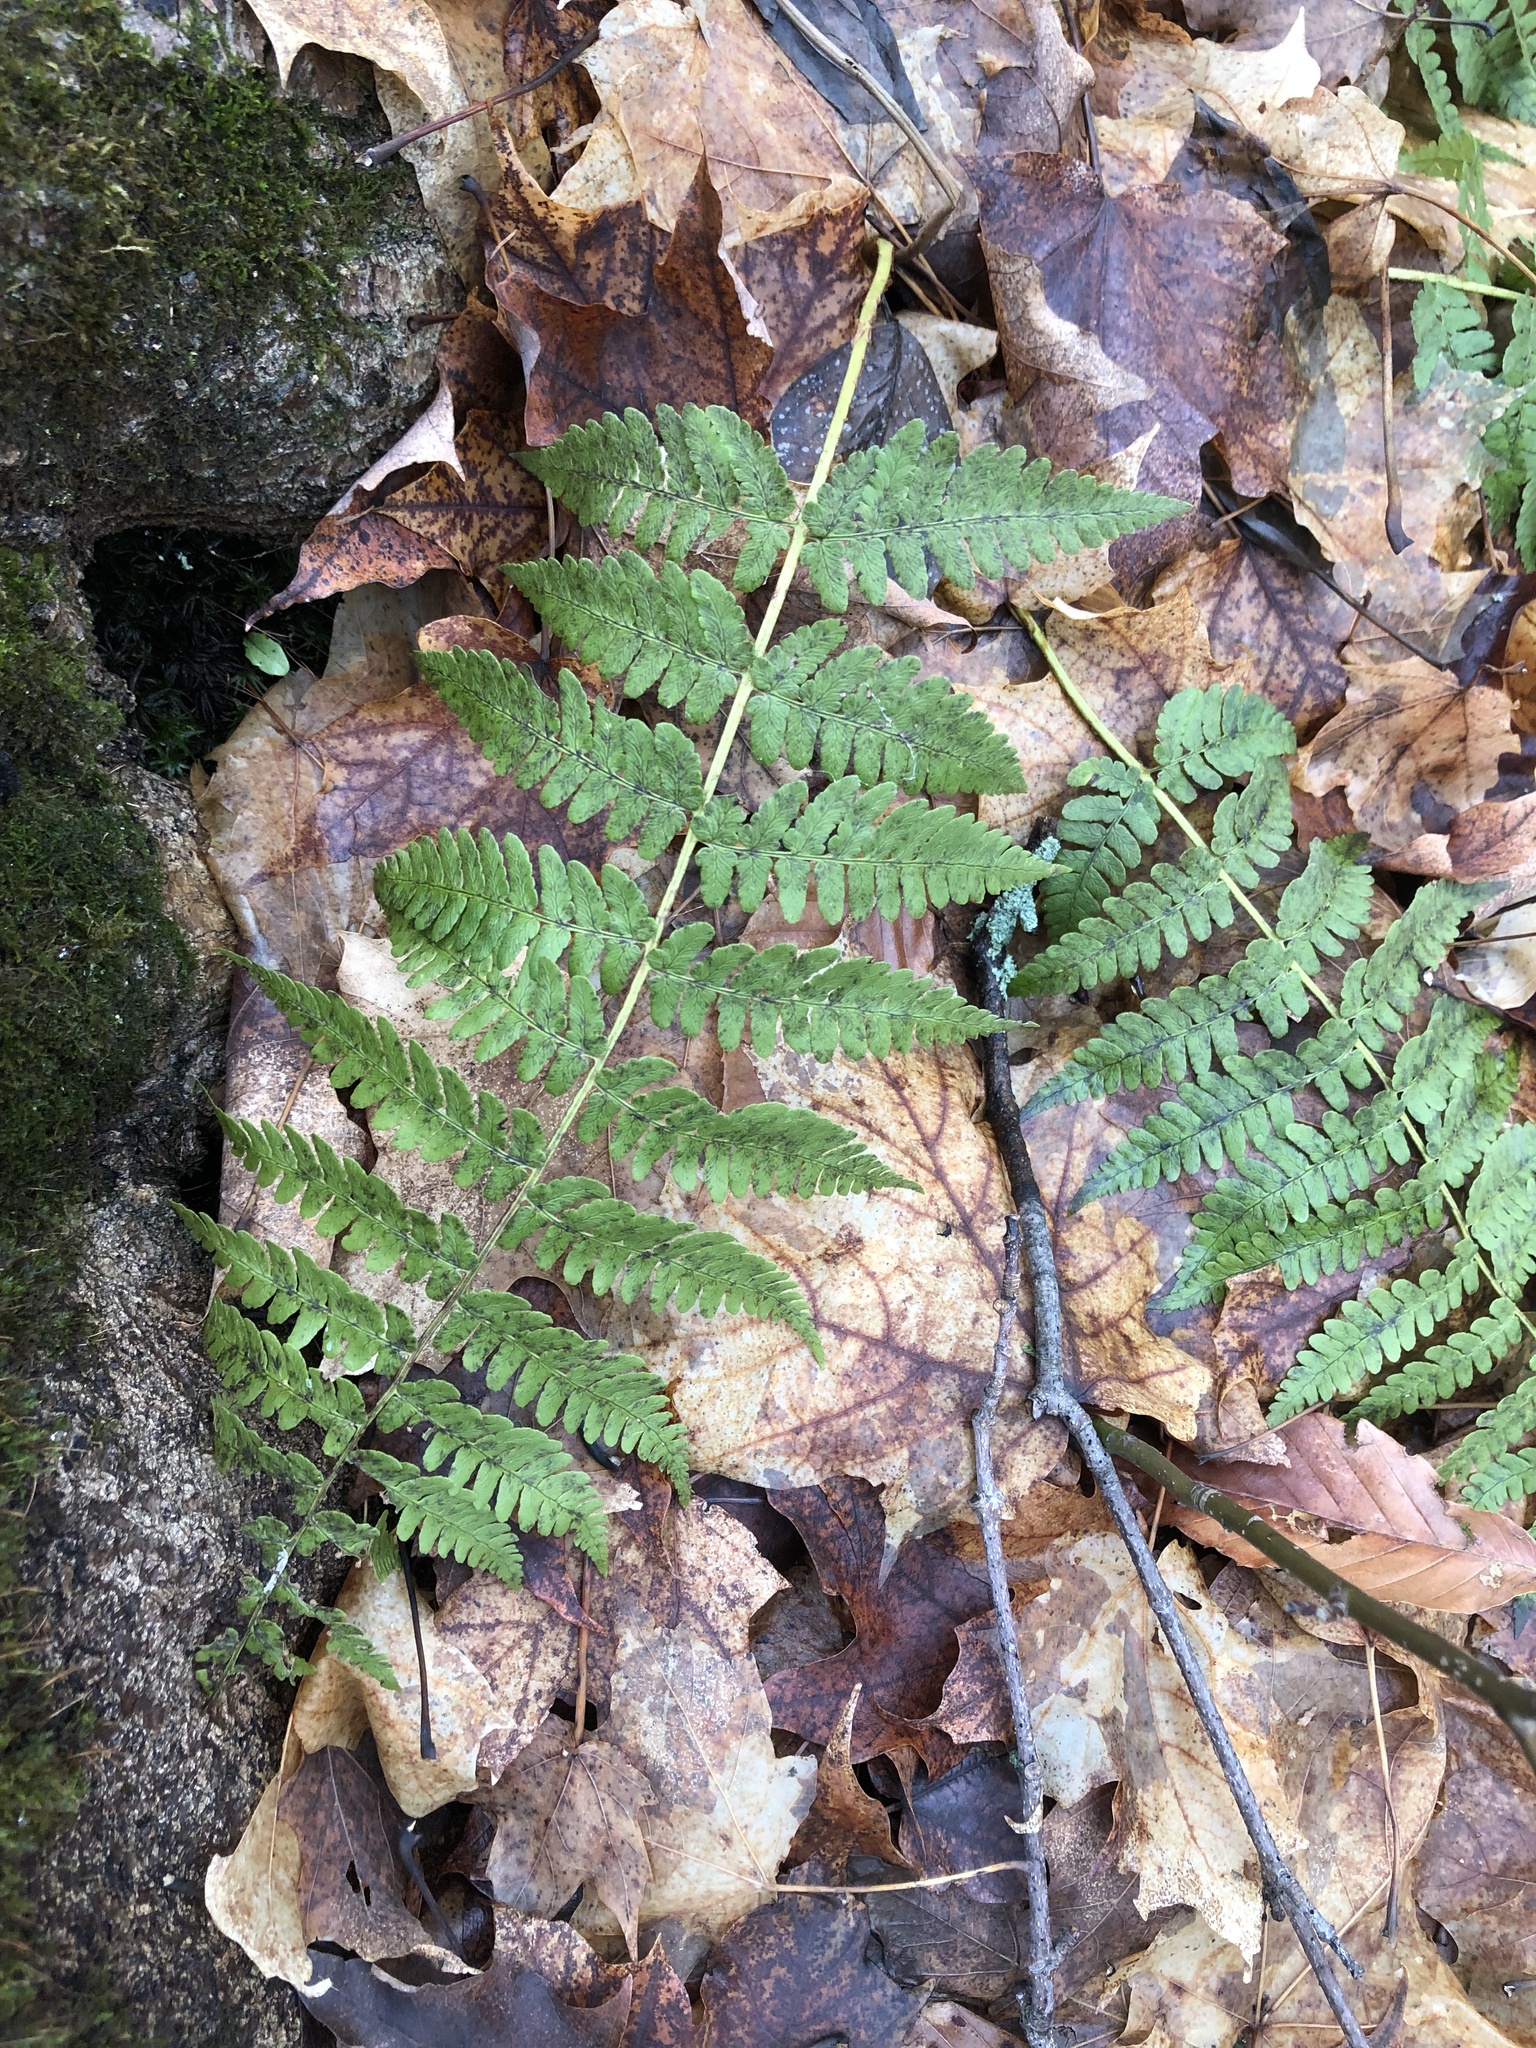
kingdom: Plantae
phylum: Tracheophyta
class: Polypodiopsida
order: Polypodiales
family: Dryopteridaceae
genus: Dryopteris
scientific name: Dryopteris marginalis
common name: Marginal wood fern
